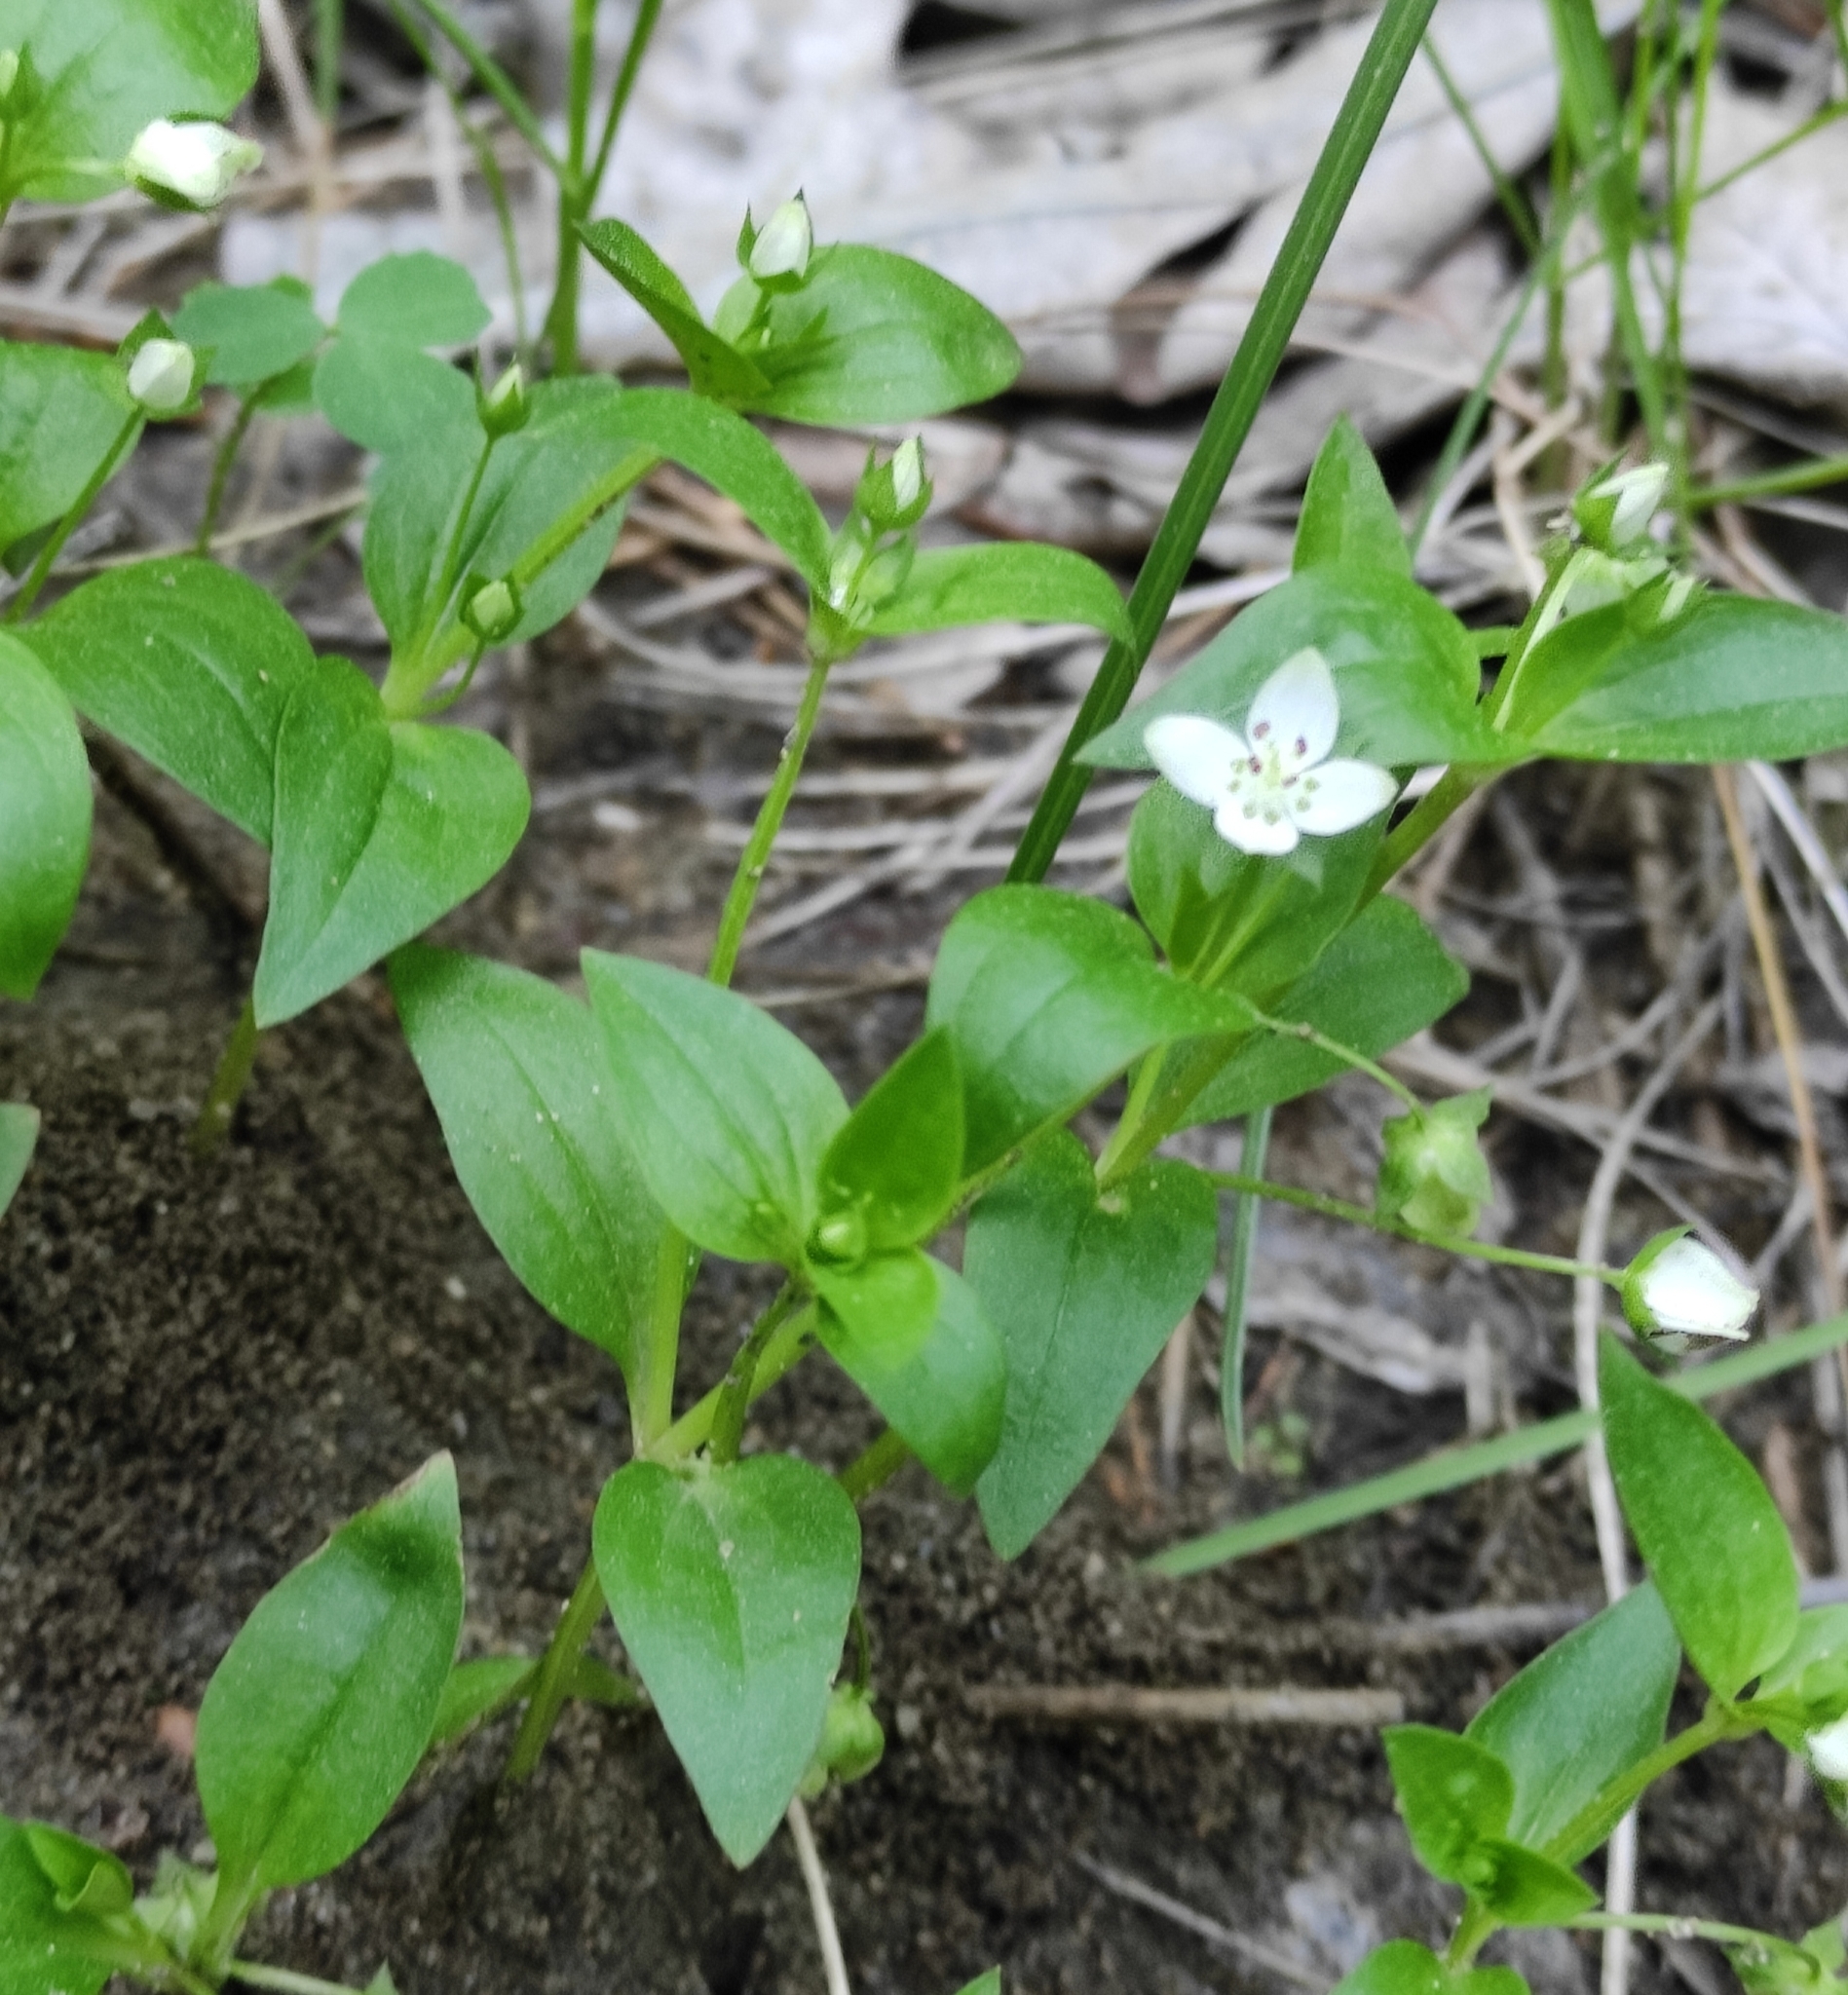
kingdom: Plantae
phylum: Tracheophyta
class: Magnoliopsida
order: Gentianales
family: Gentianaceae
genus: Swertia
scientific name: Swertia dichotoma
